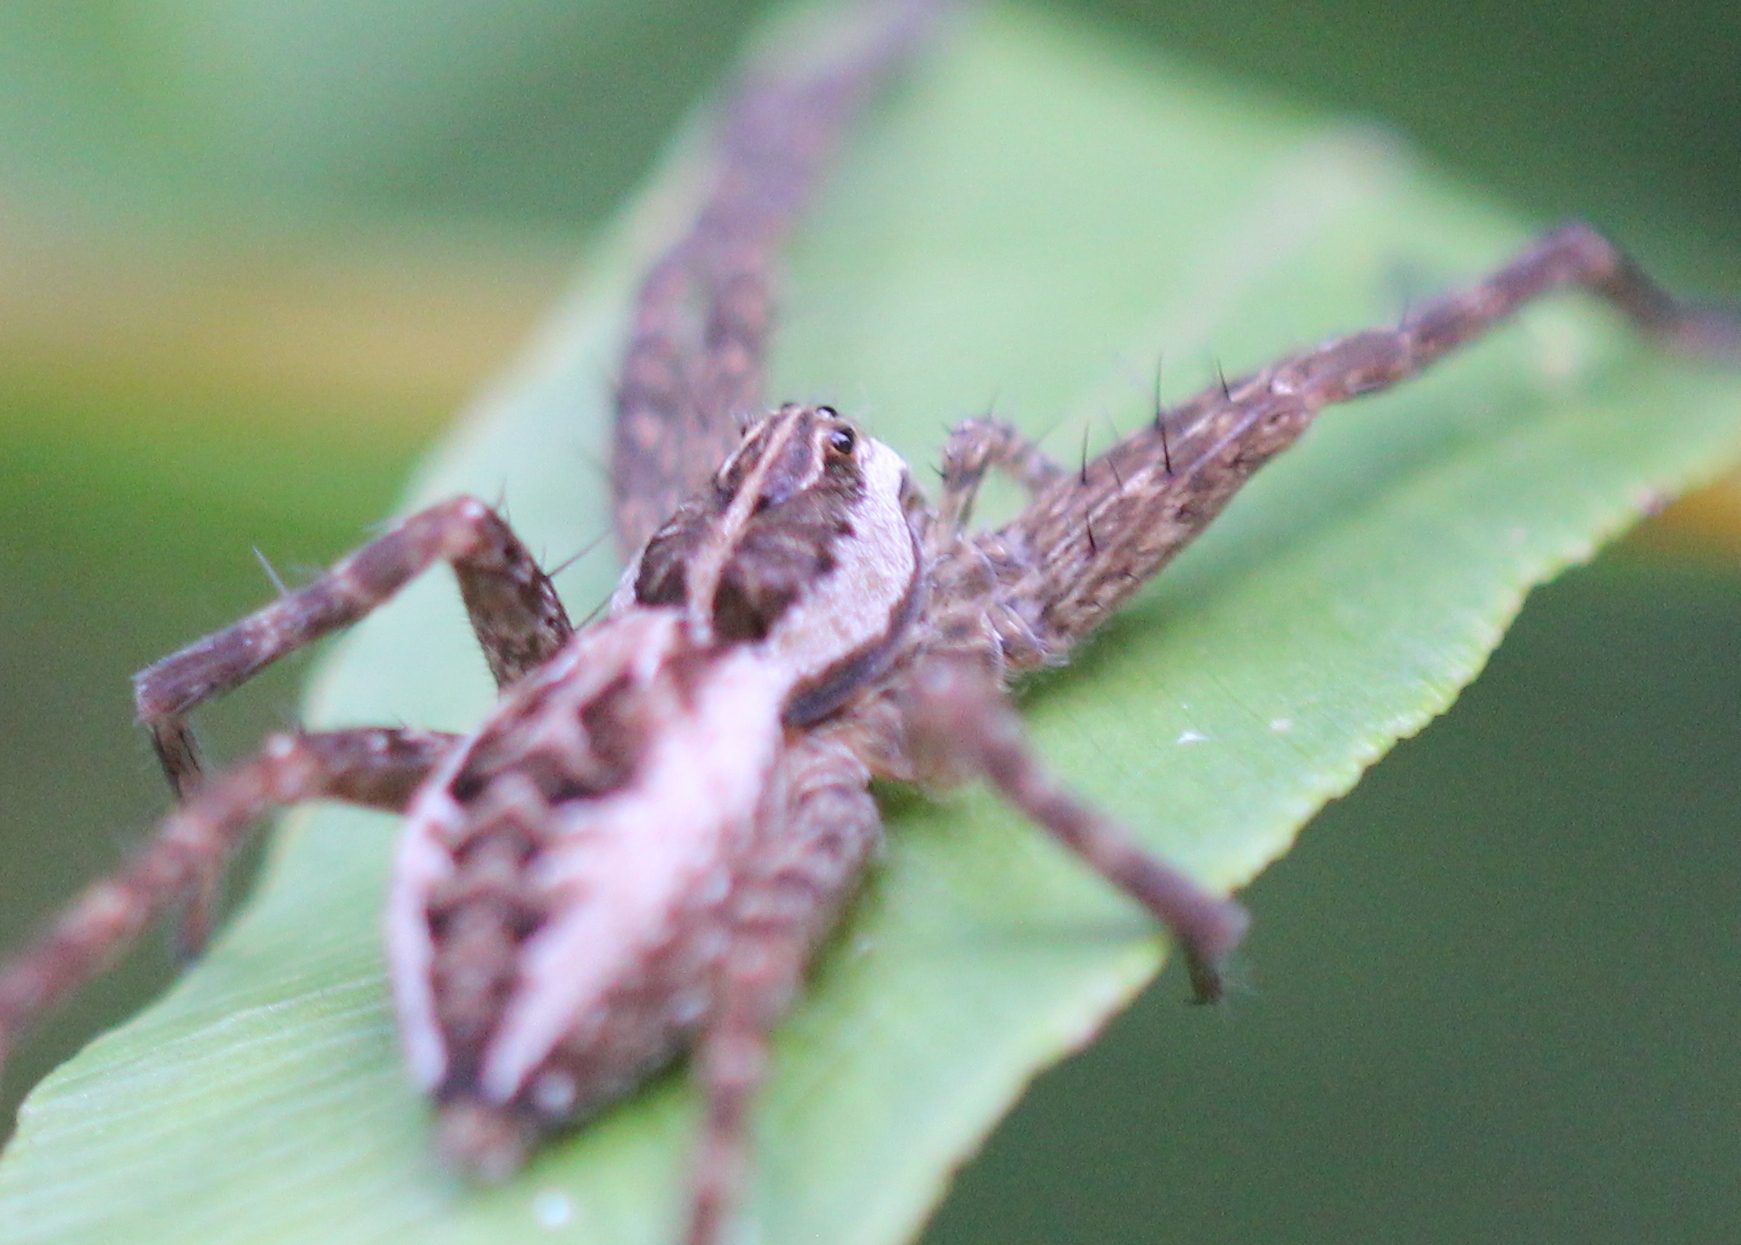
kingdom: Animalia
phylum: Arthropoda
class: Arachnida
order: Araneae
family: Pisauridae
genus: Dolomedes
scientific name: Dolomedes scriptus
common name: Striped fishing spider
